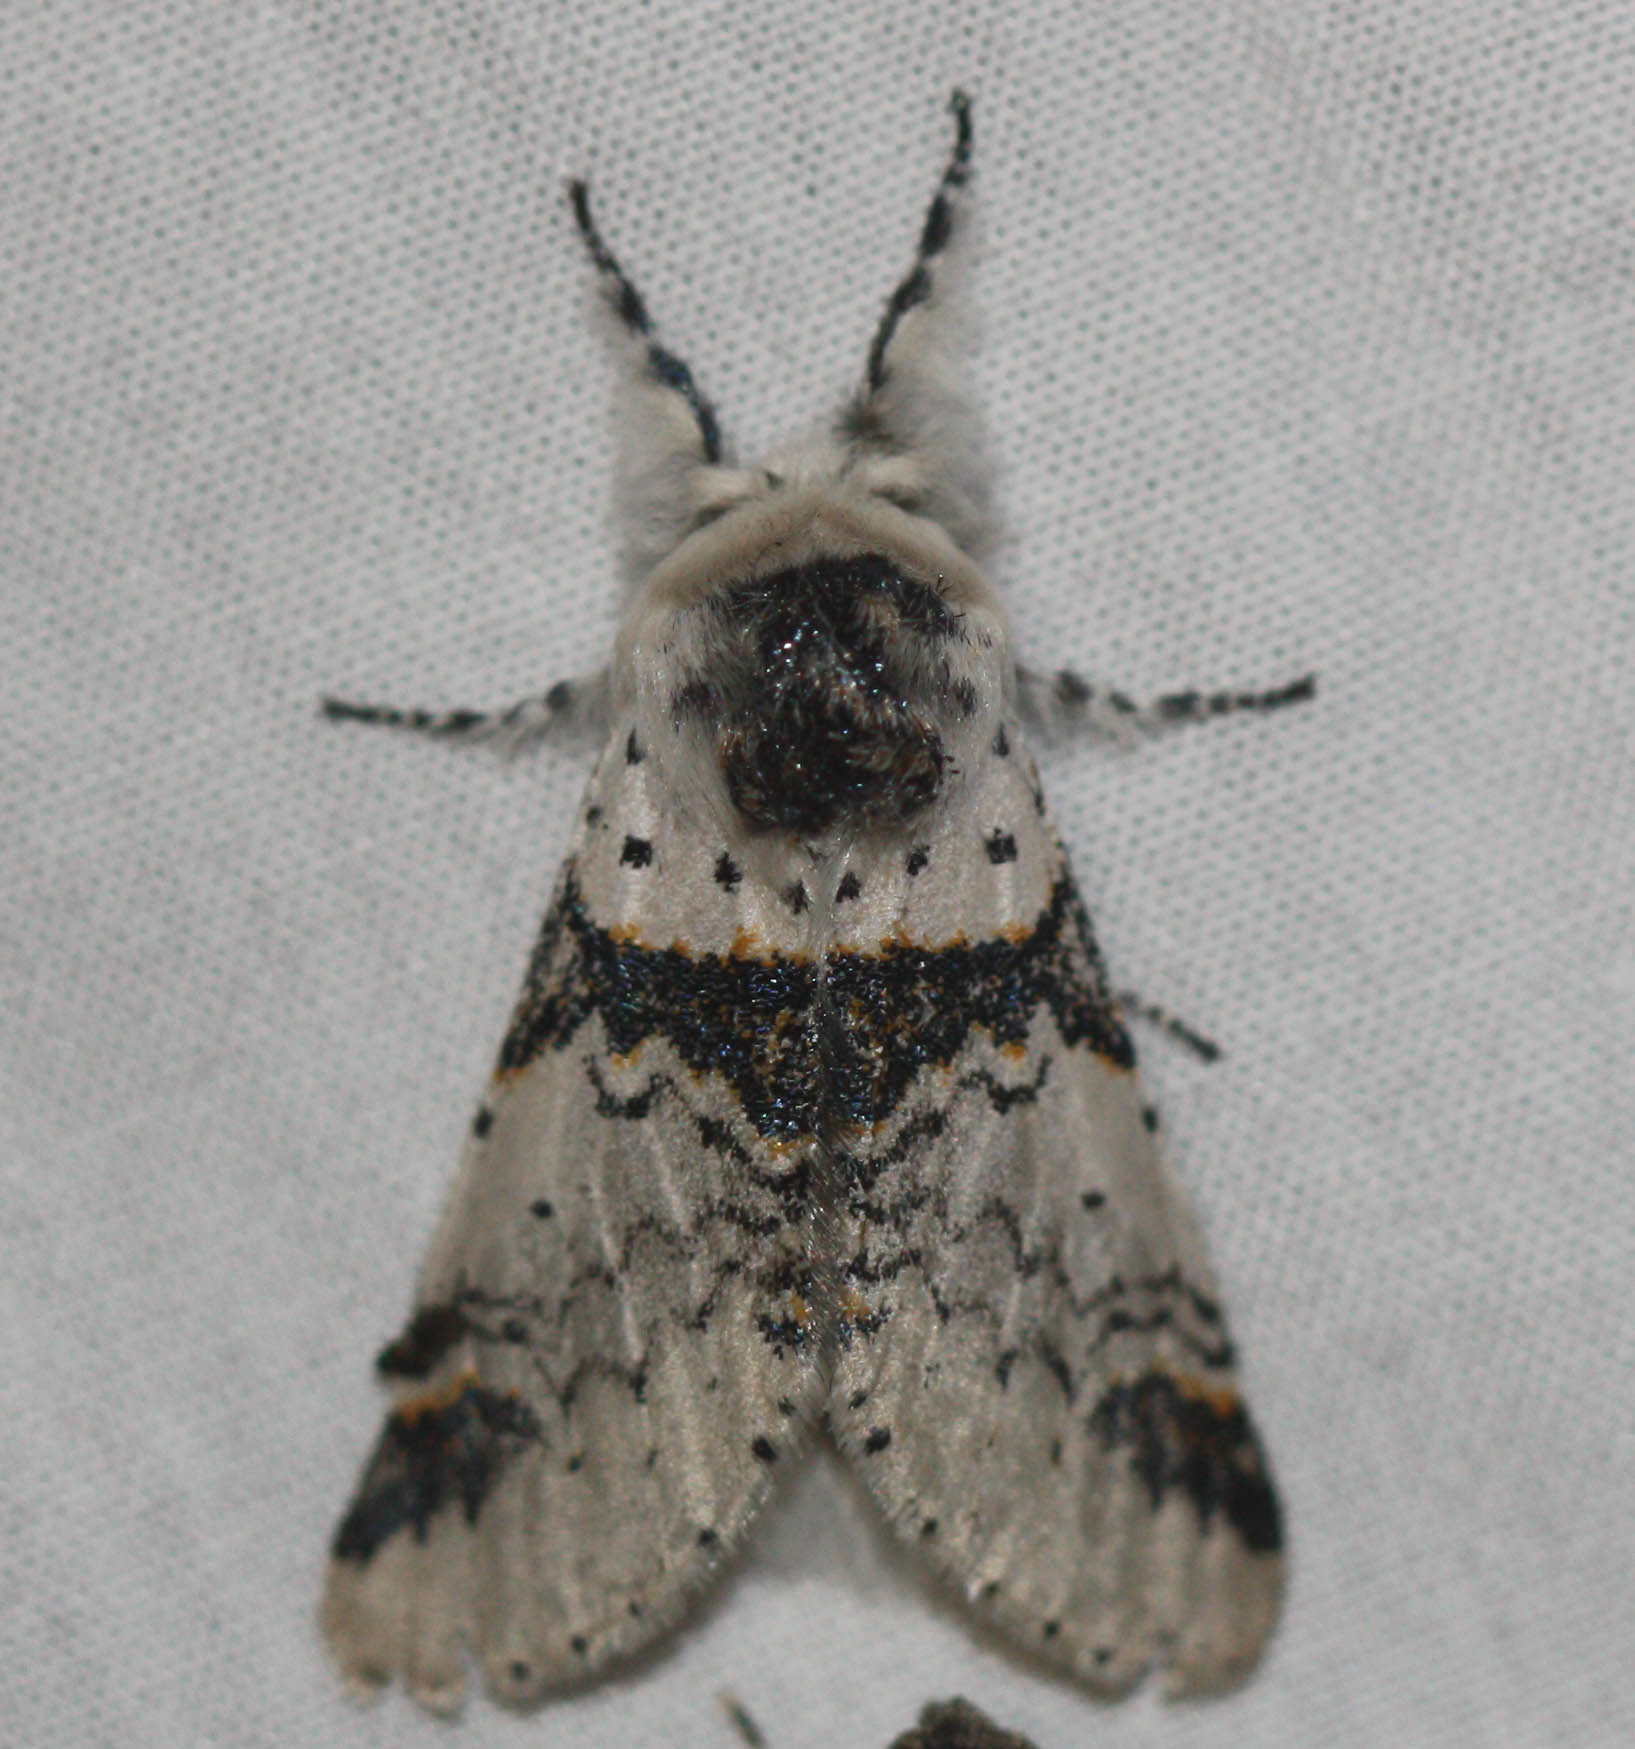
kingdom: Animalia
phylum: Arthropoda
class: Insecta
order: Lepidoptera
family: Notodontidae
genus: Furcula
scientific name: Furcula scolopendrina
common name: Zigzag furcula moth
